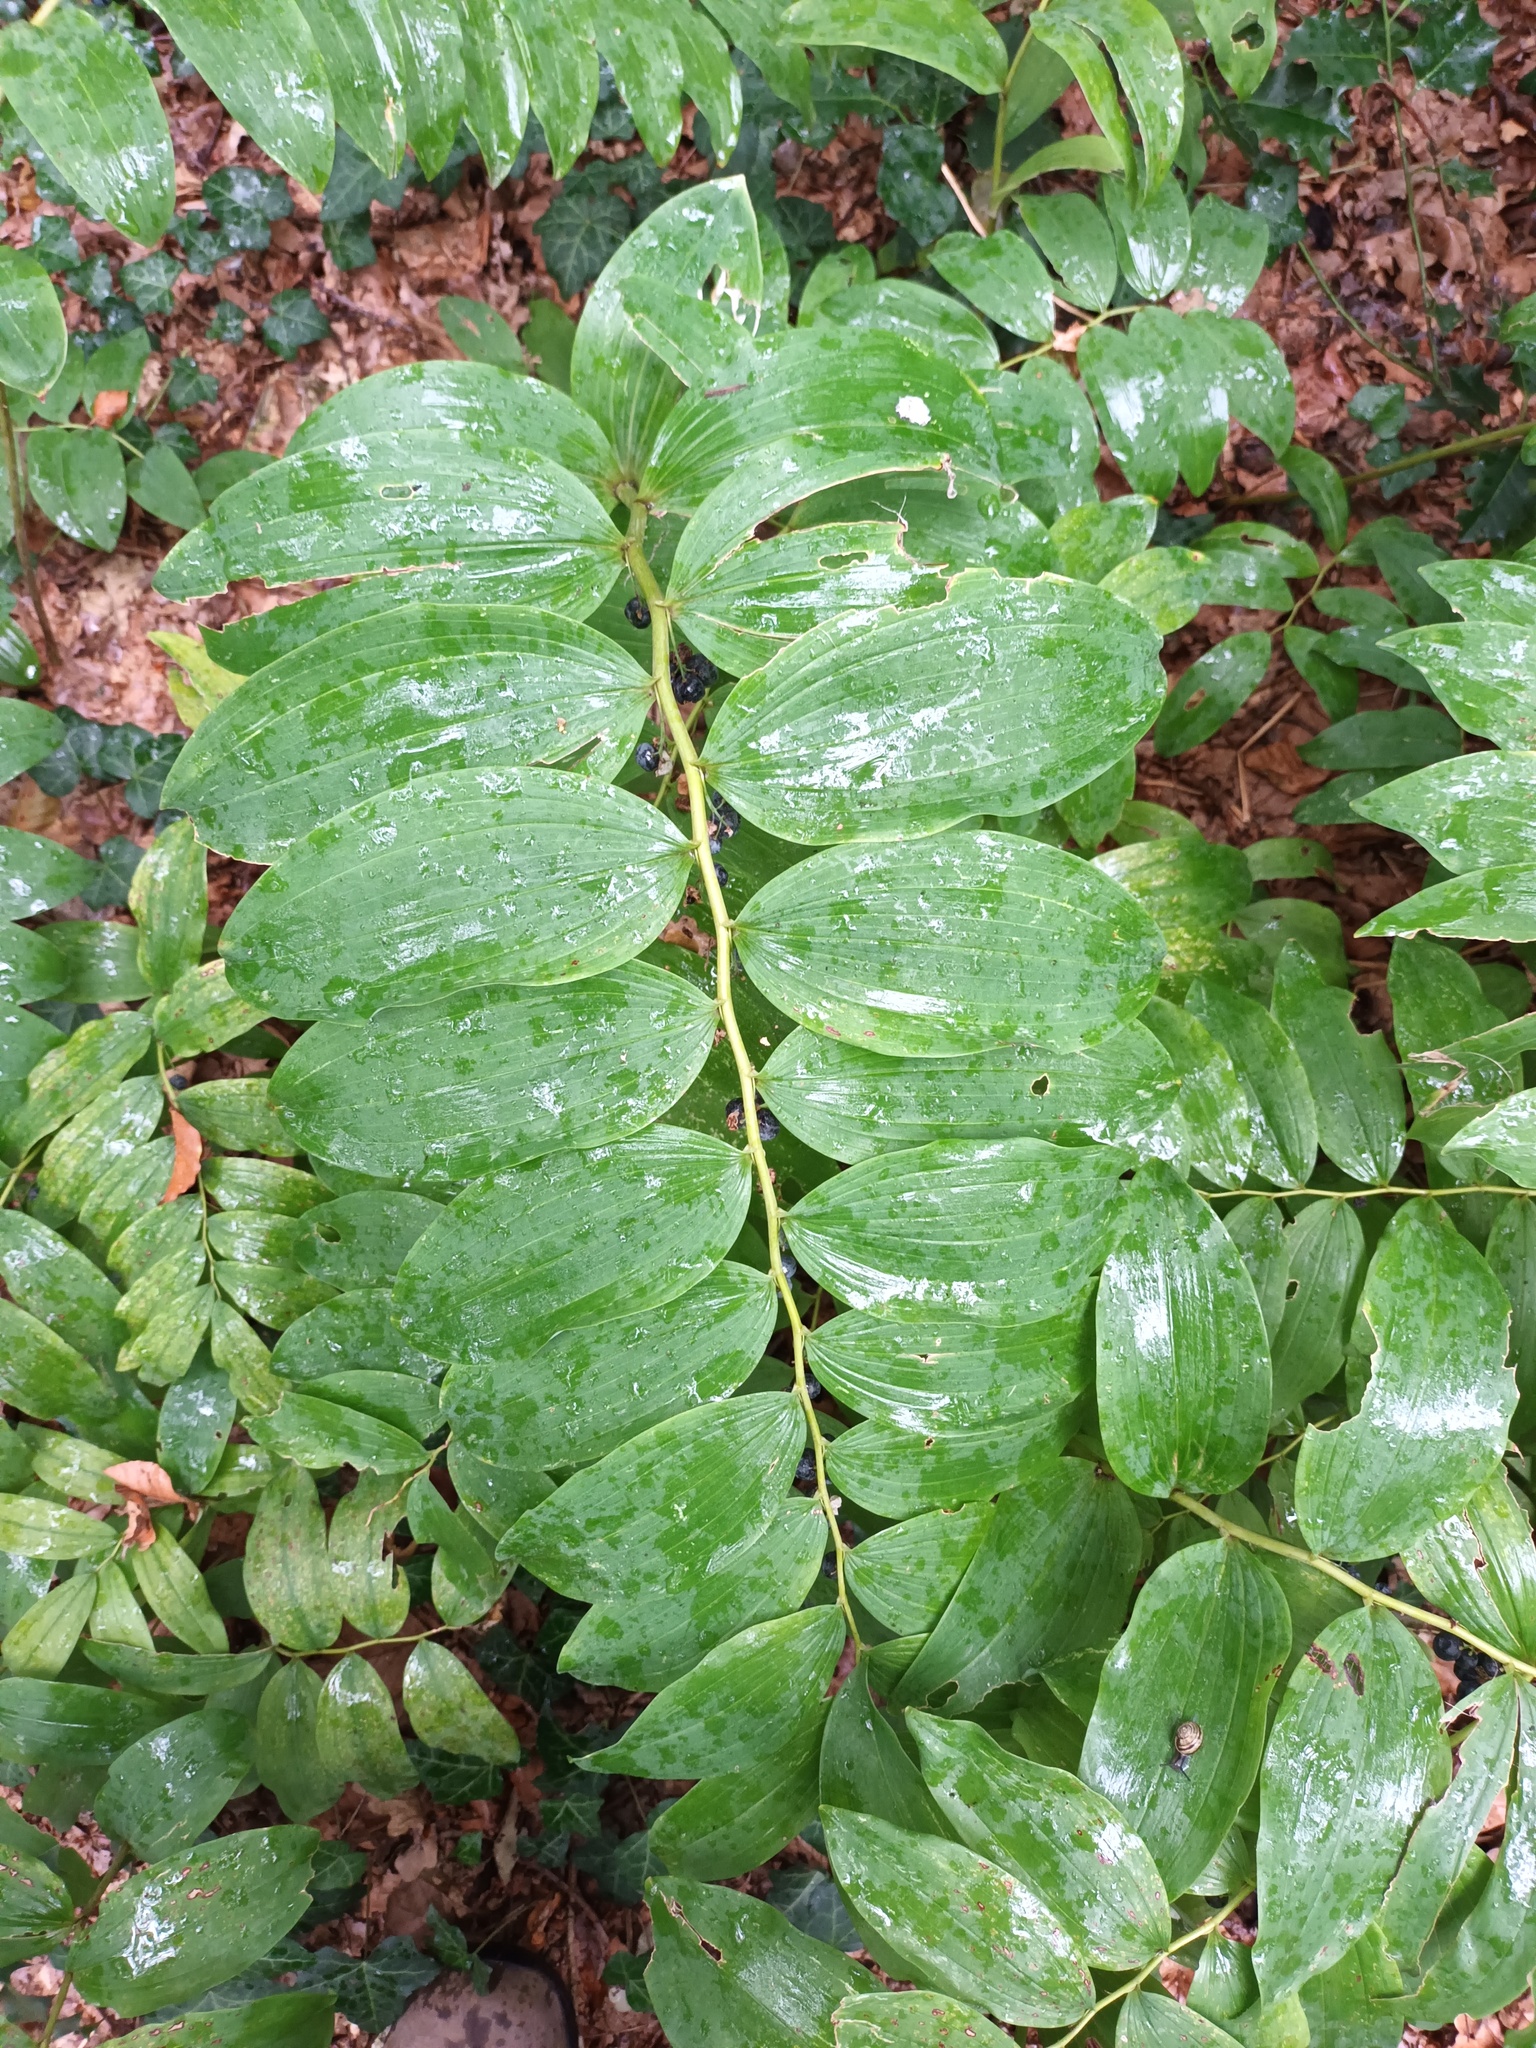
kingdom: Plantae
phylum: Tracheophyta
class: Liliopsida
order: Asparagales
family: Asparagaceae
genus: Polygonatum
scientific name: Polygonatum multiflorum
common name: Solomon's-seal
